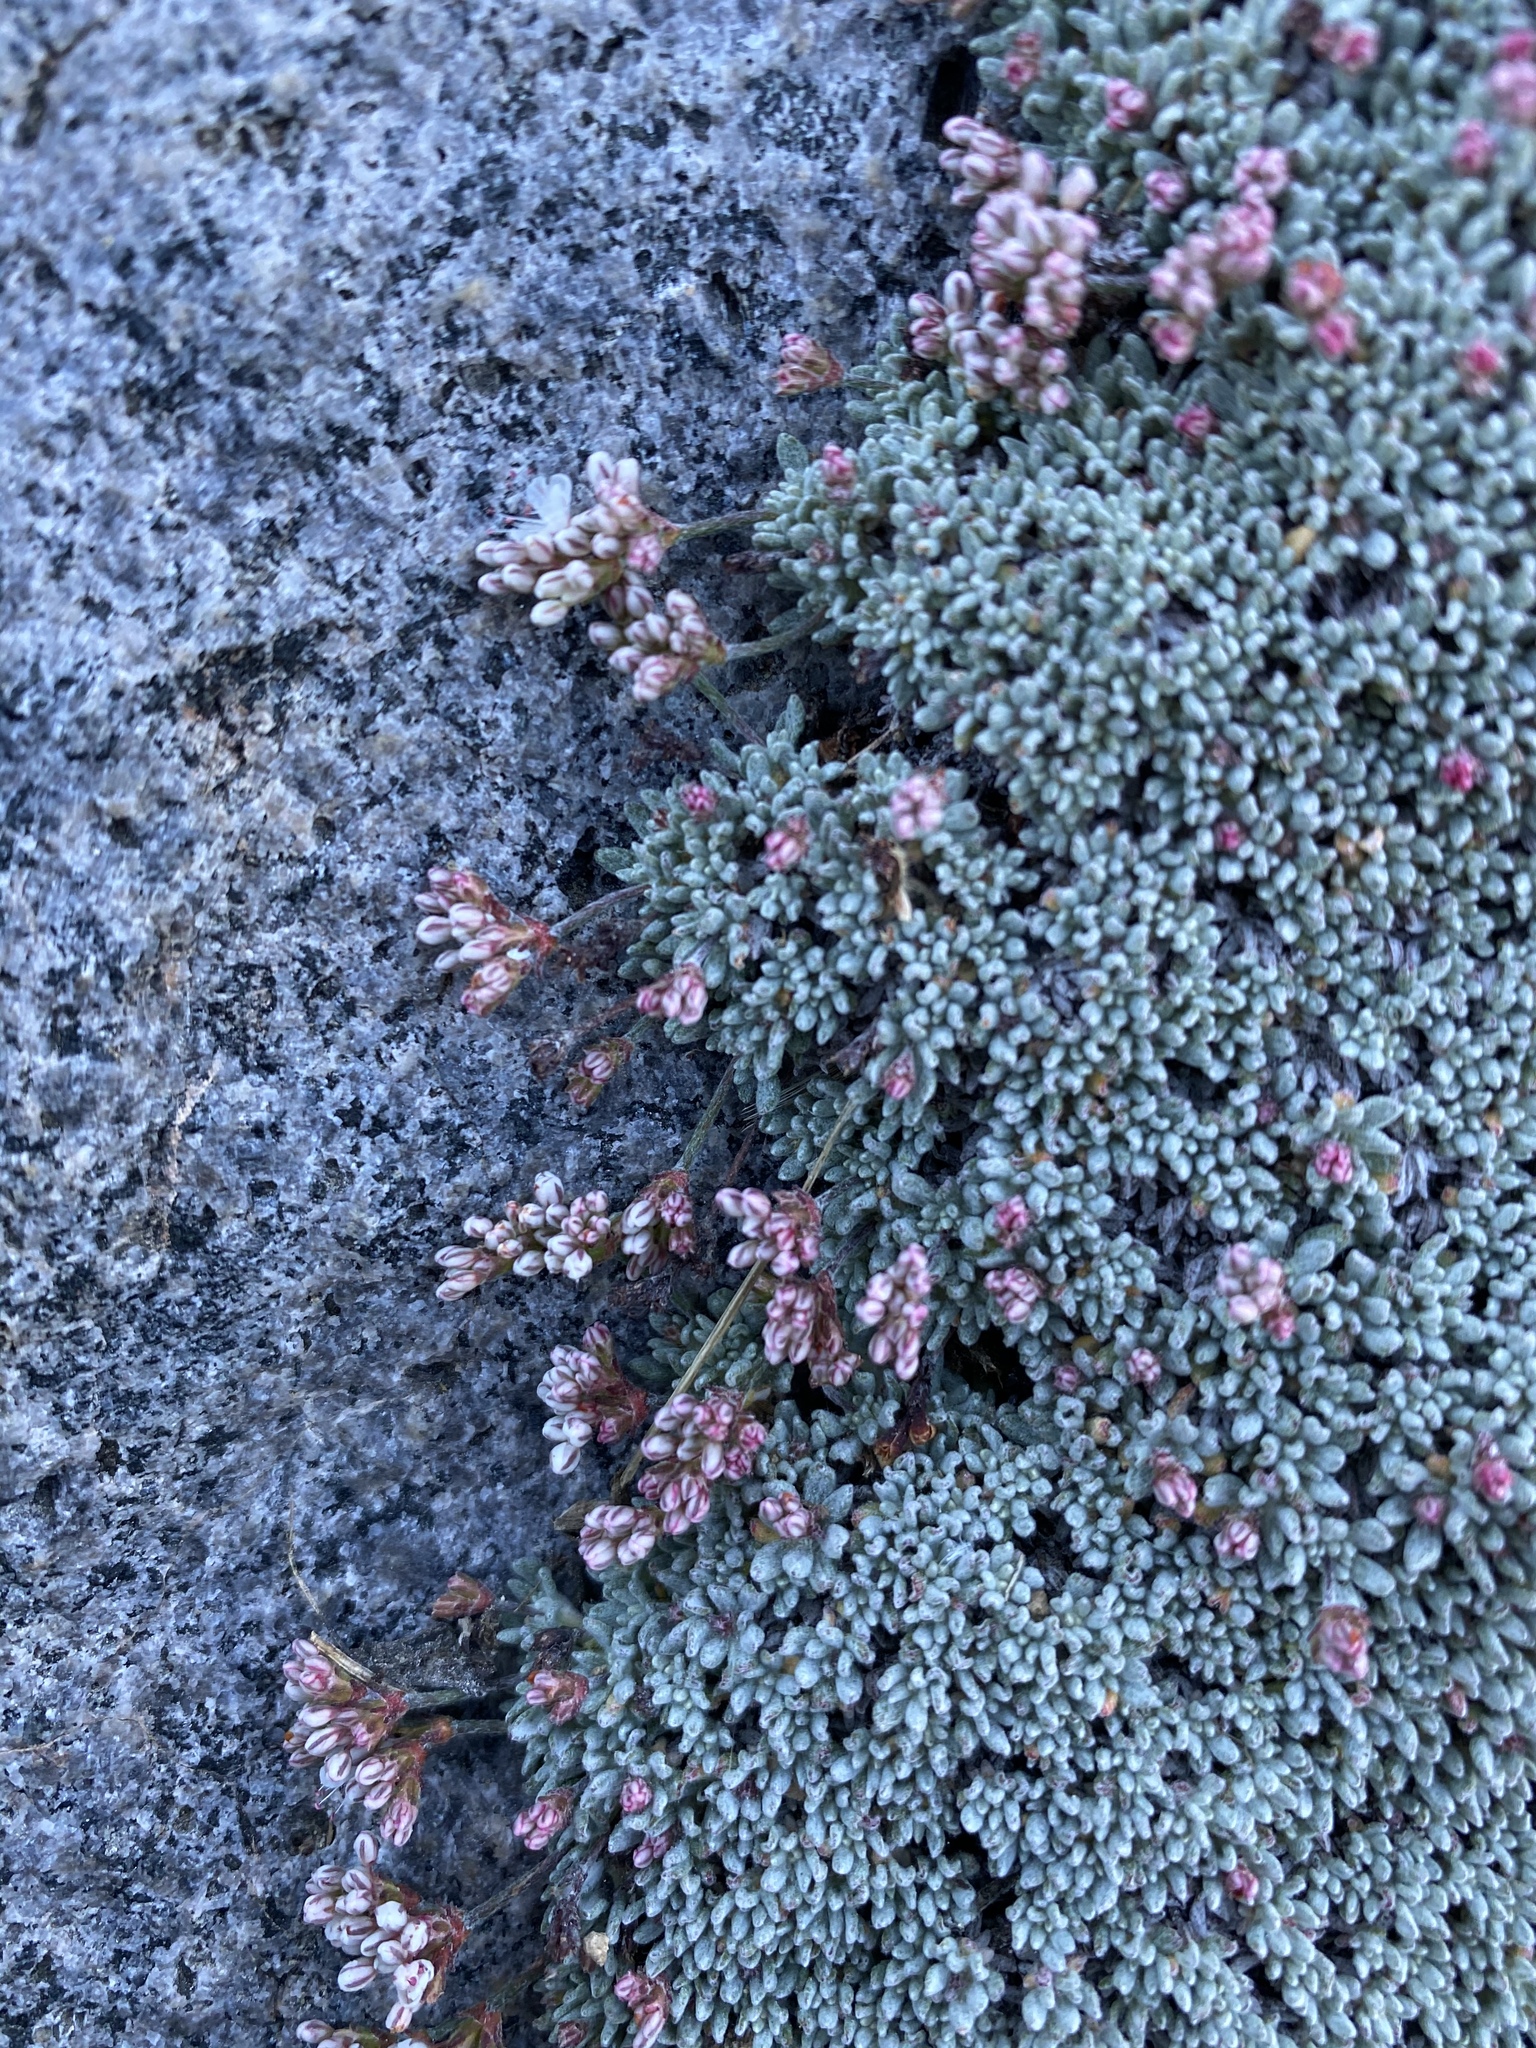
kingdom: Plantae
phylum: Tracheophyta
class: Magnoliopsida
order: Caryophyllales
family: Polygonaceae
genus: Eriogonum
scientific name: Eriogonum wrightii
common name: Bastard-sage
